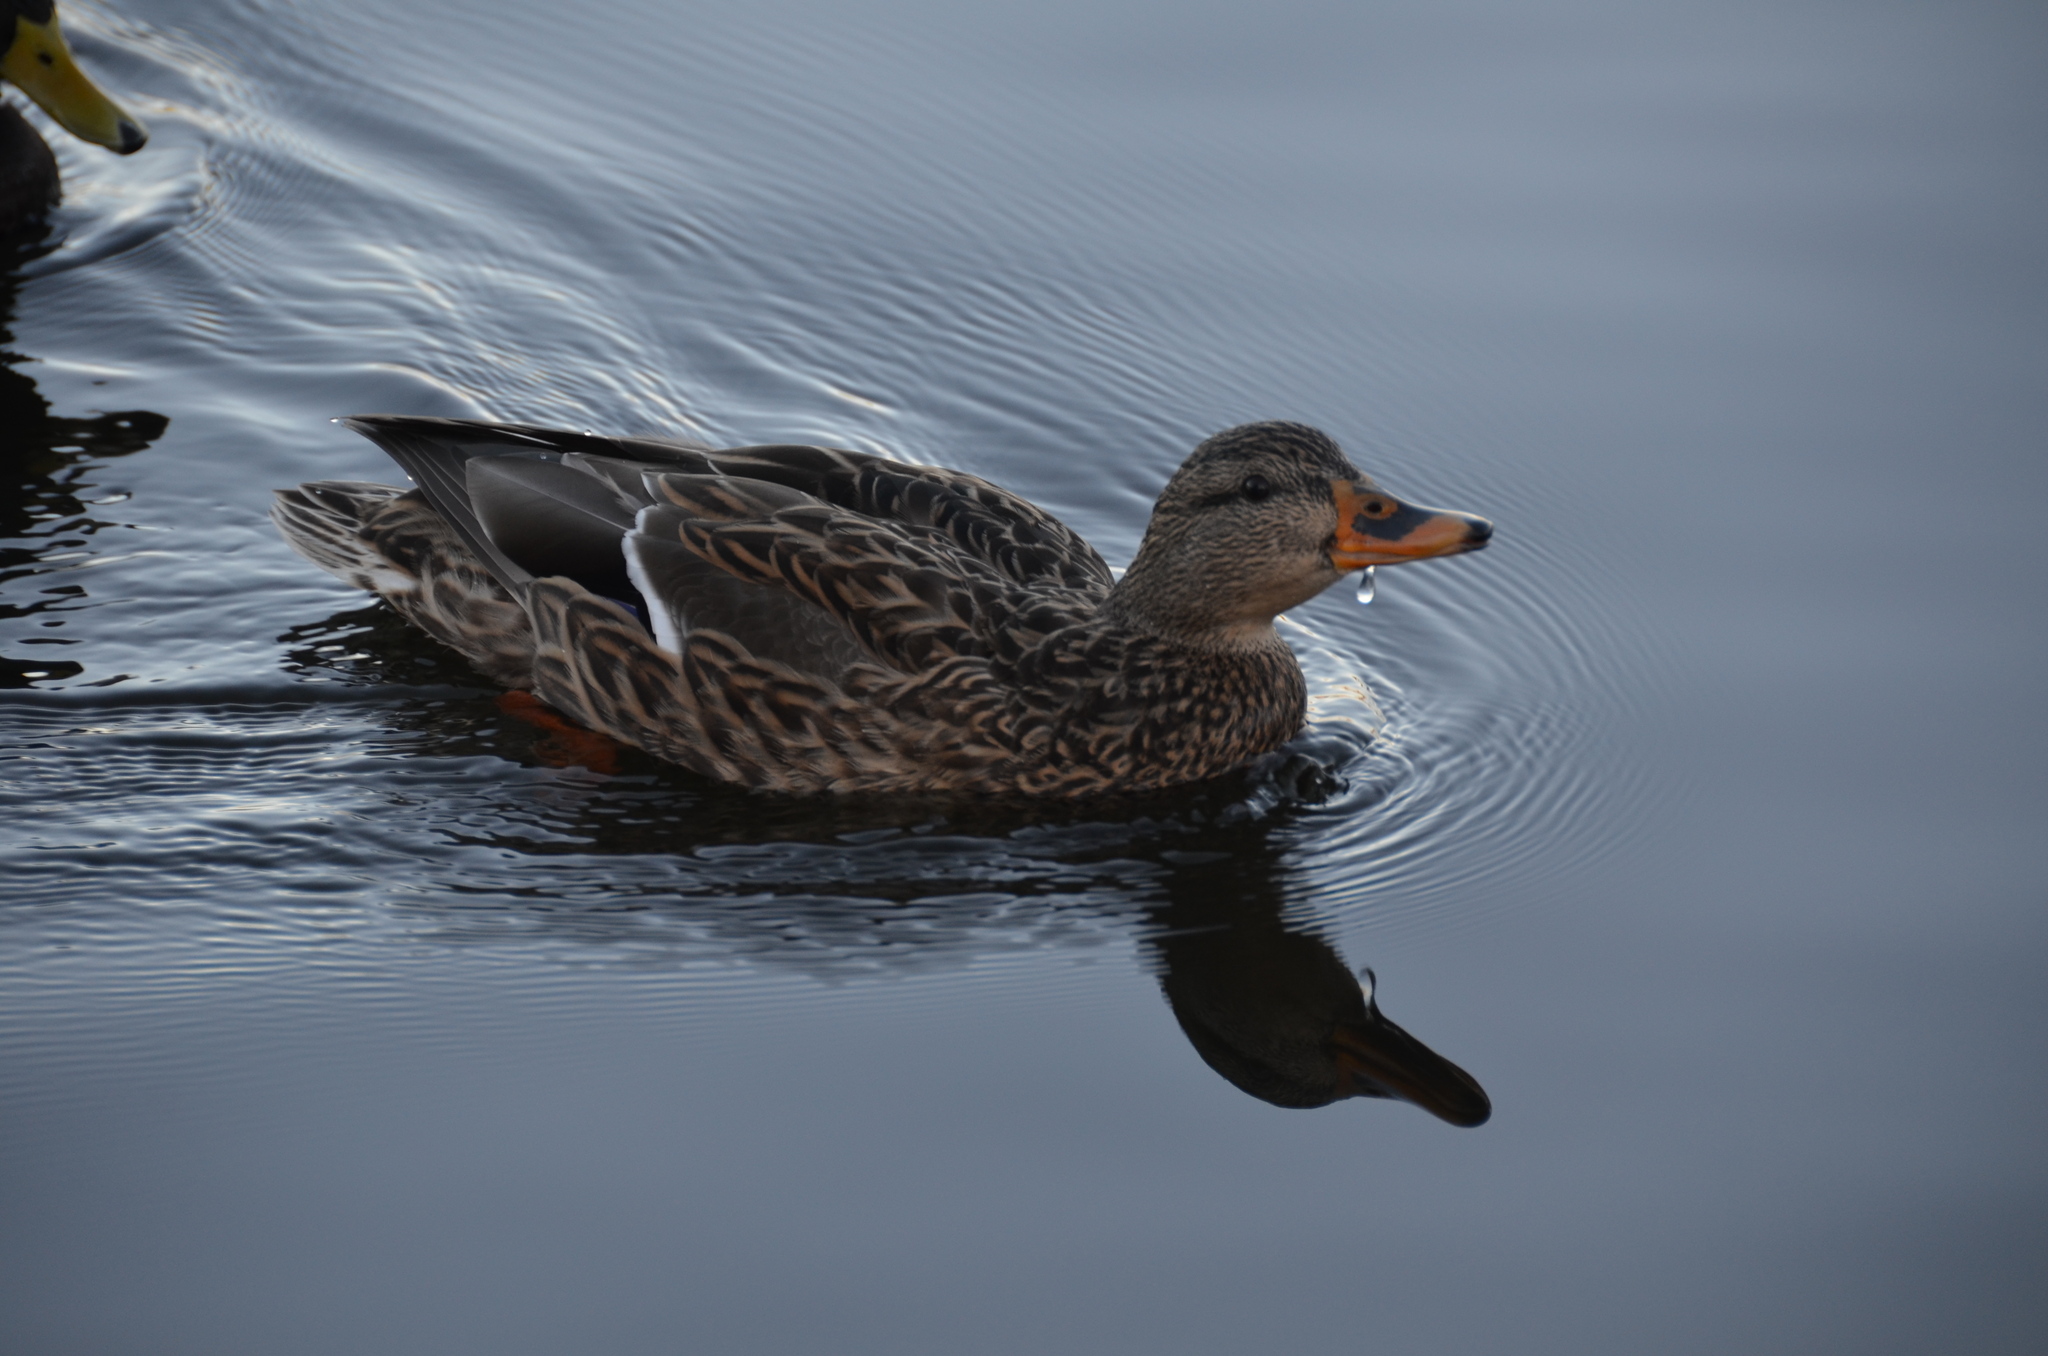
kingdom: Animalia
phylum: Chordata
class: Aves
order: Anseriformes
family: Anatidae
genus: Anas
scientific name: Anas platyrhynchos
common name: Mallard
